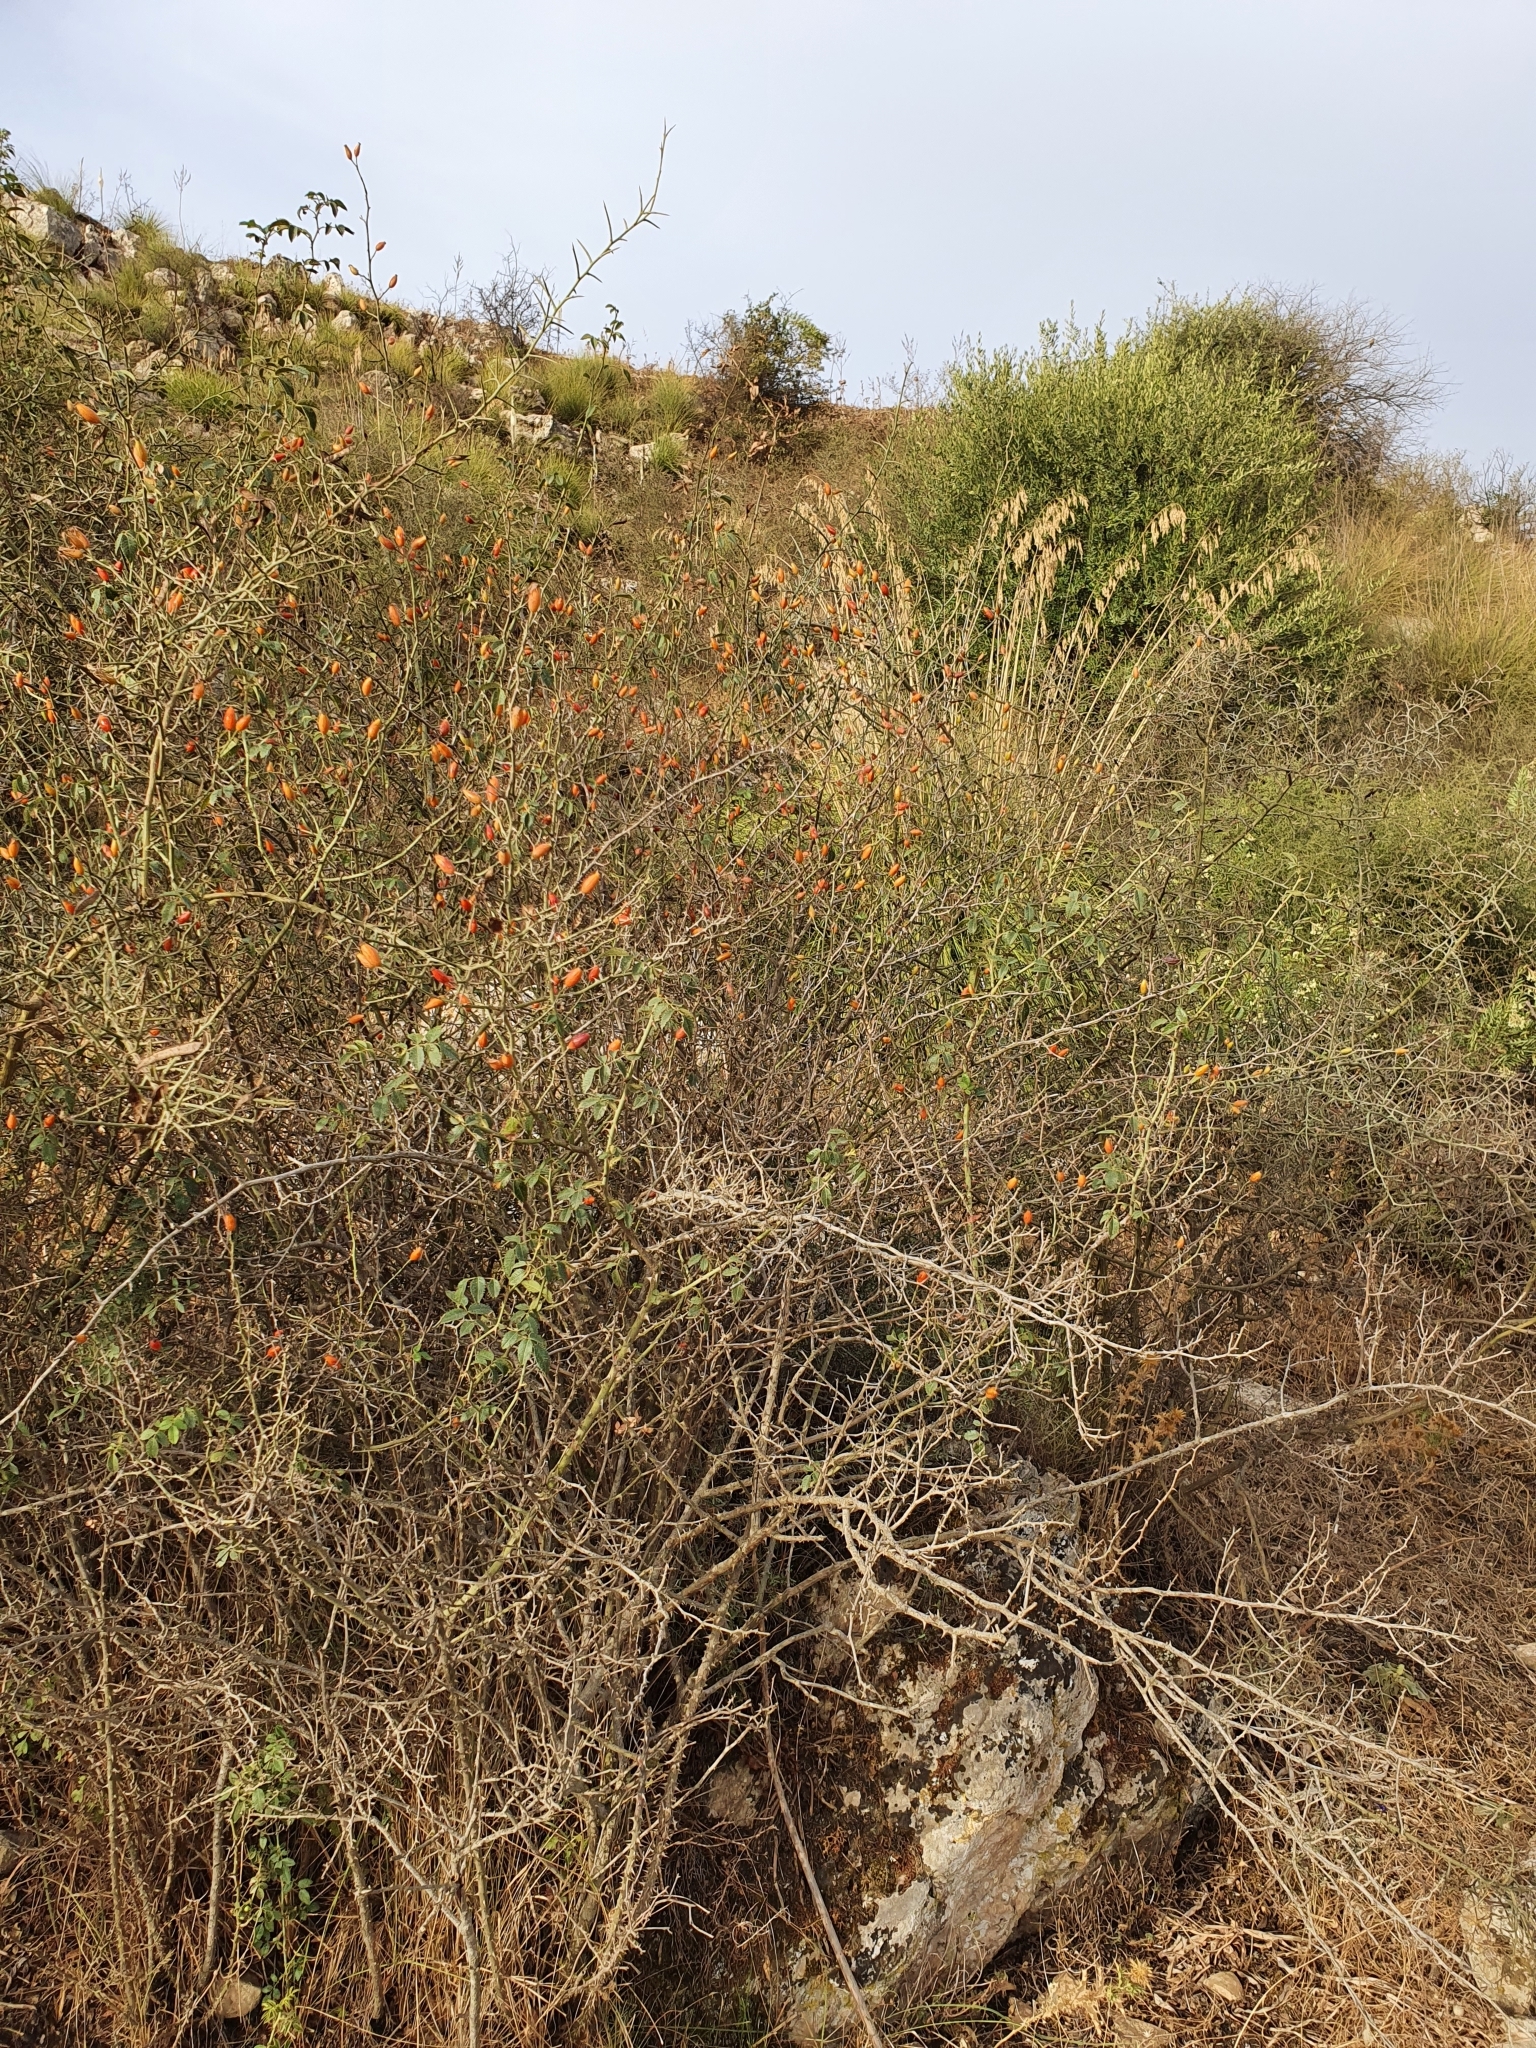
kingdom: Plantae
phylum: Tracheophyta
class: Magnoliopsida
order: Rosales
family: Rosaceae
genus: Rosa
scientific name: Rosa micrantha
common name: Small-flowered sweet-briar
